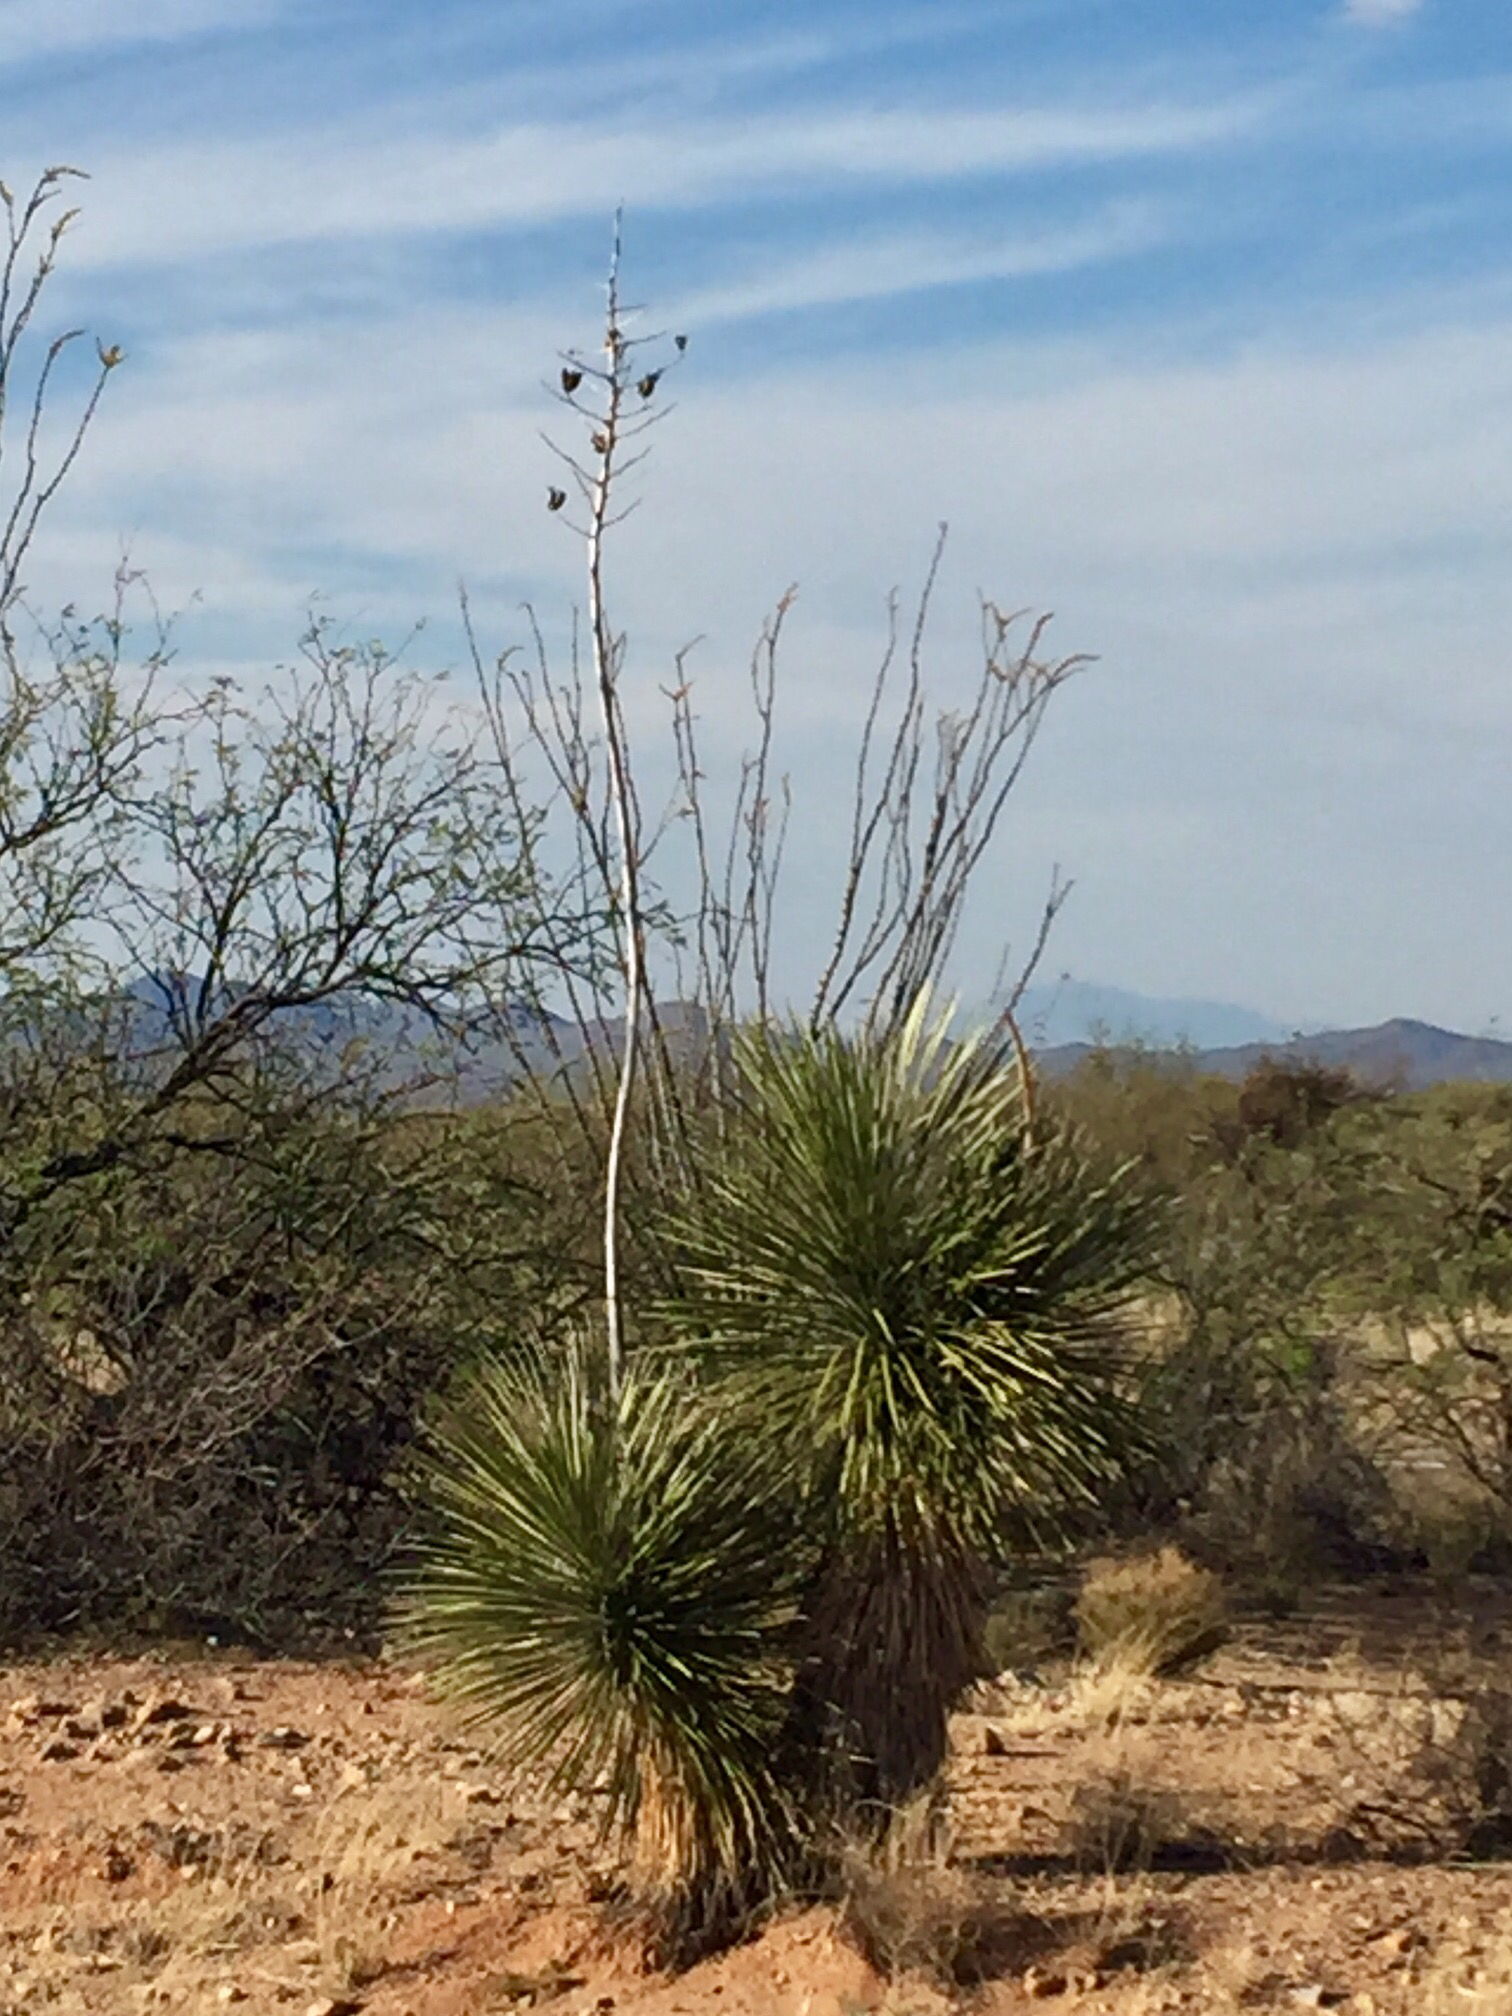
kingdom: Plantae
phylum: Tracheophyta
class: Liliopsida
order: Asparagales
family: Asparagaceae
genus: Yucca
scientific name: Yucca elata
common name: Palmella
